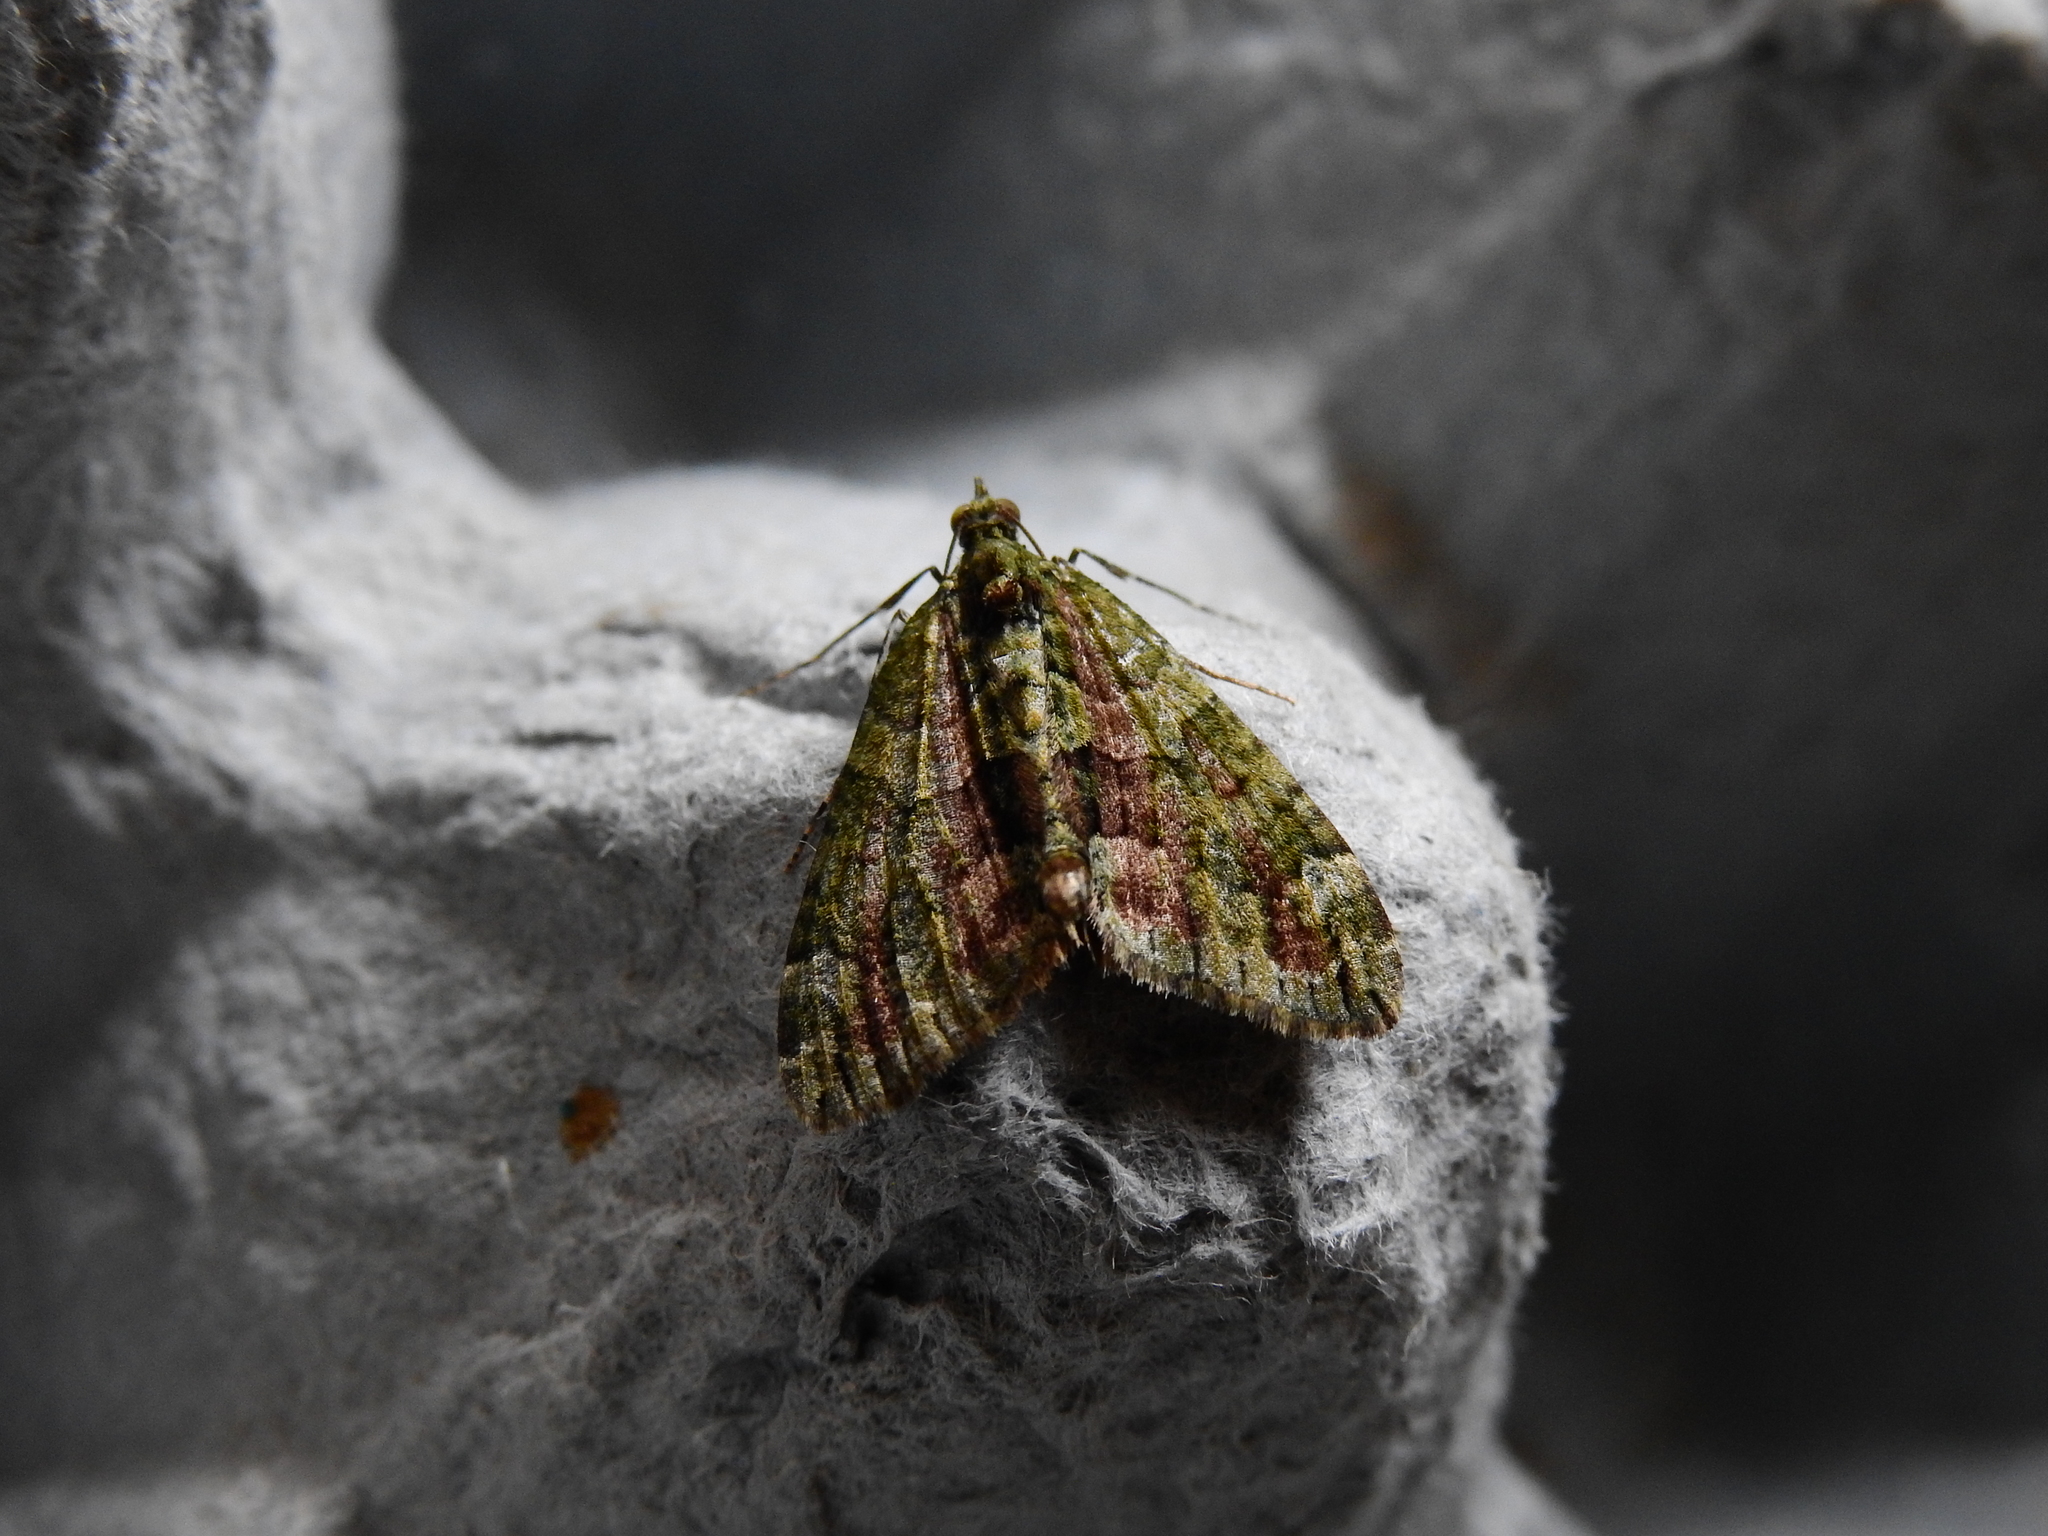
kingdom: Animalia
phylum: Arthropoda
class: Insecta
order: Lepidoptera
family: Geometridae
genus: Chloroclysta
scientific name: Chloroclysta siterata
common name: Red-green carpet
